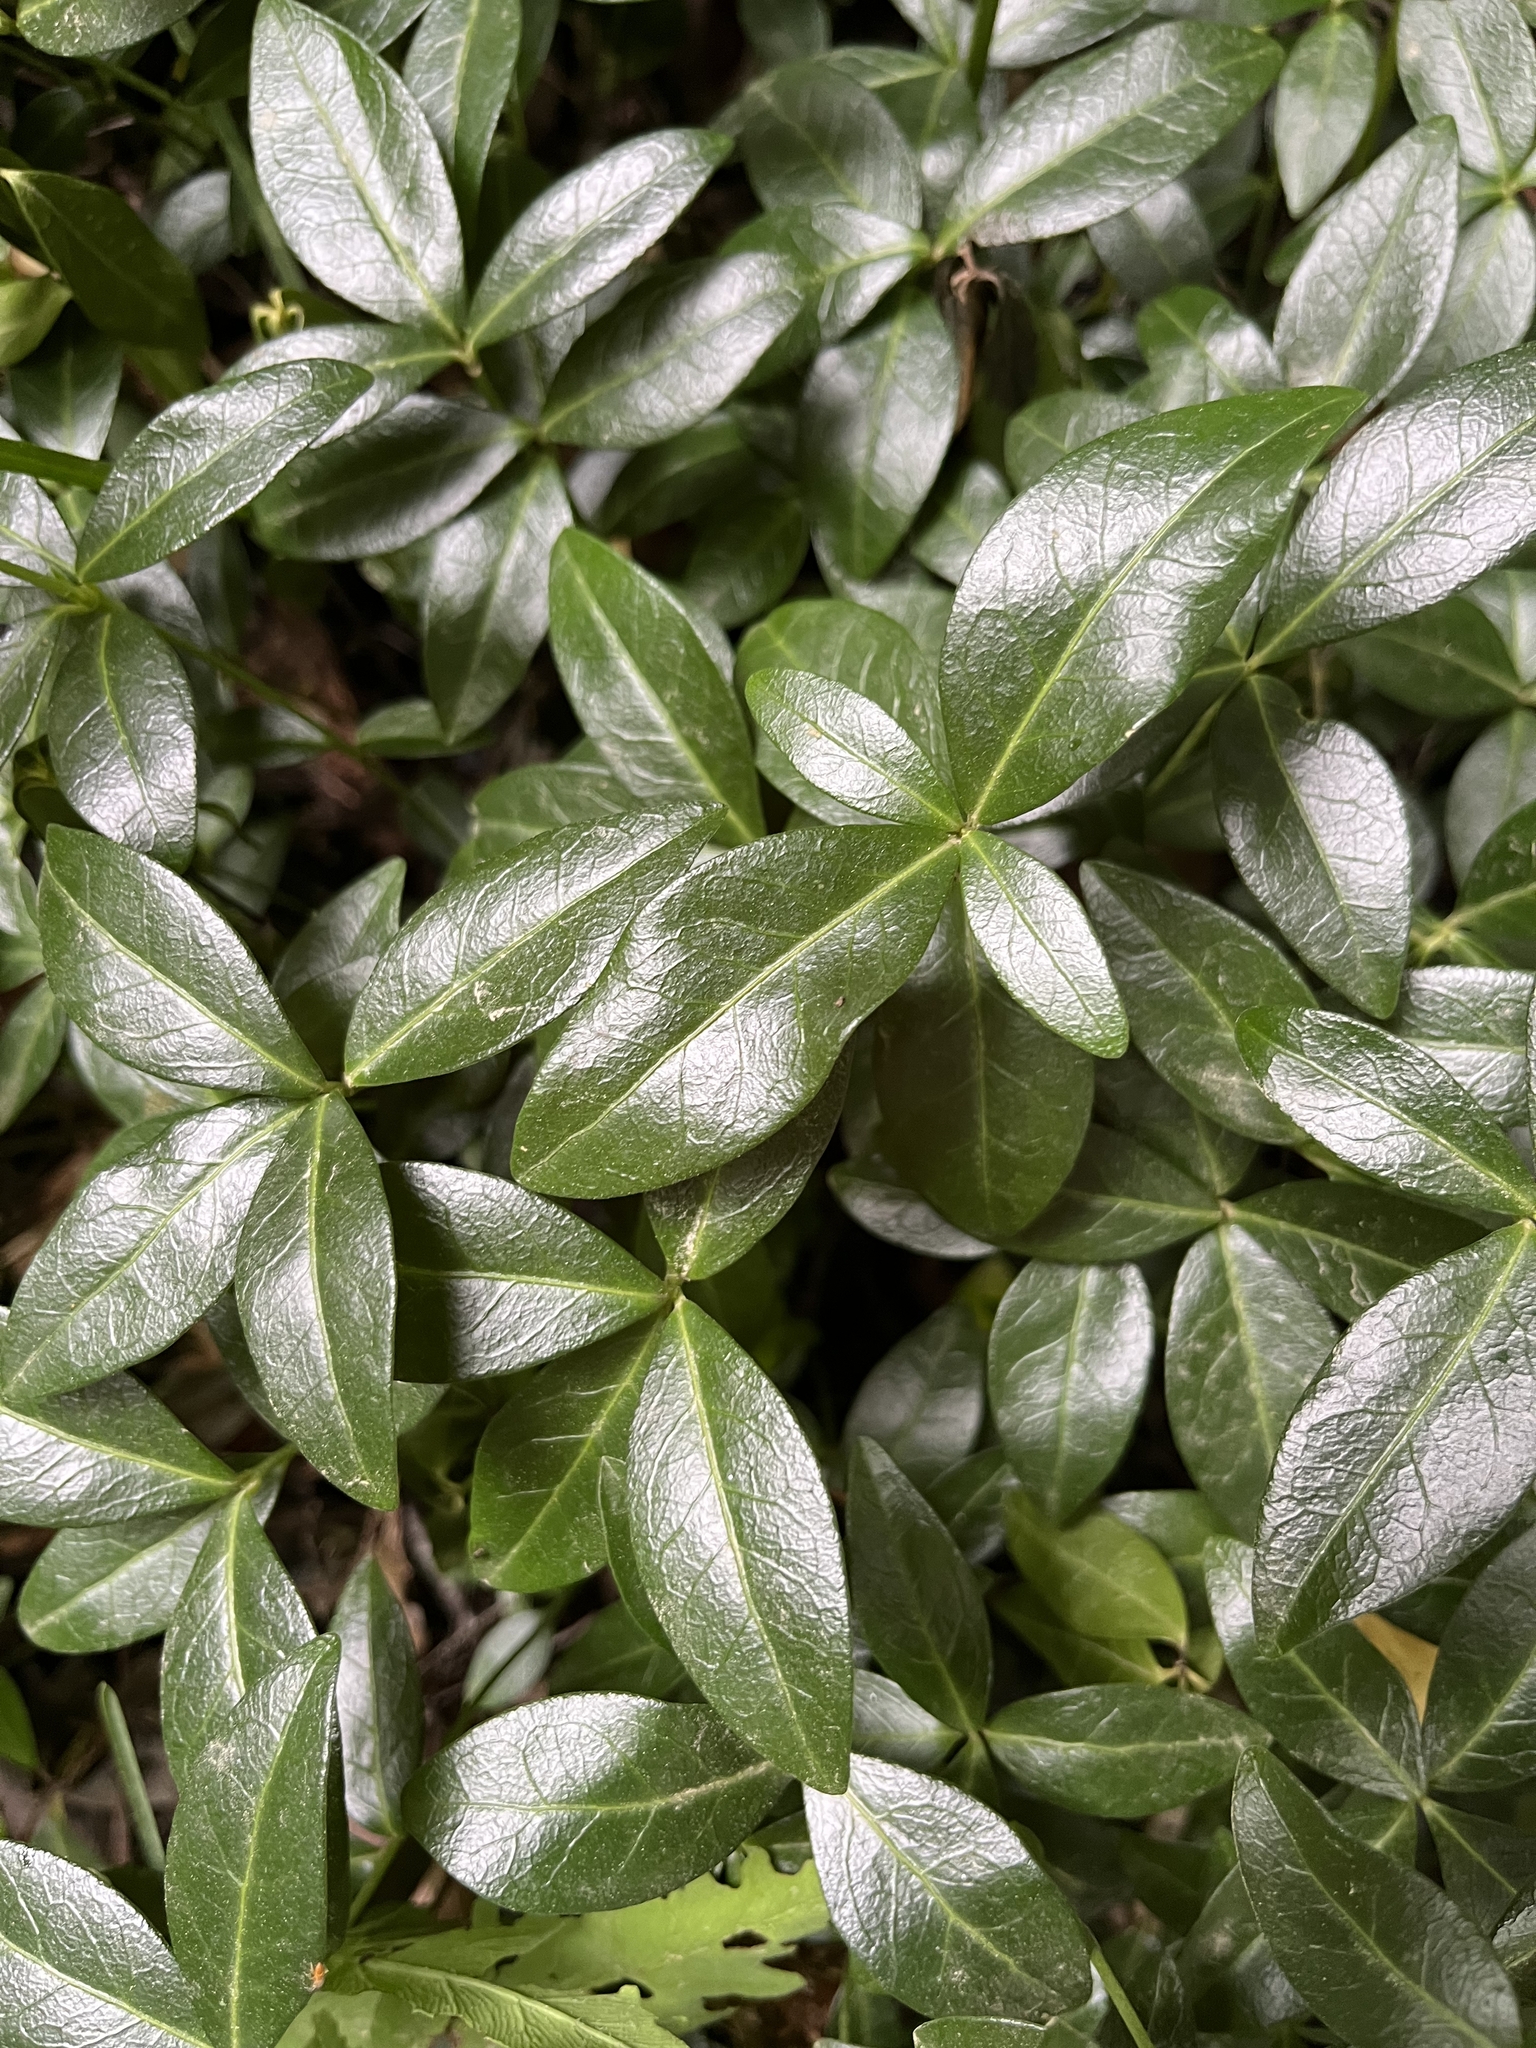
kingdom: Plantae
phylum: Tracheophyta
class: Magnoliopsida
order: Gentianales
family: Apocynaceae
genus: Vinca
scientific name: Vinca minor
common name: Lesser periwinkle
